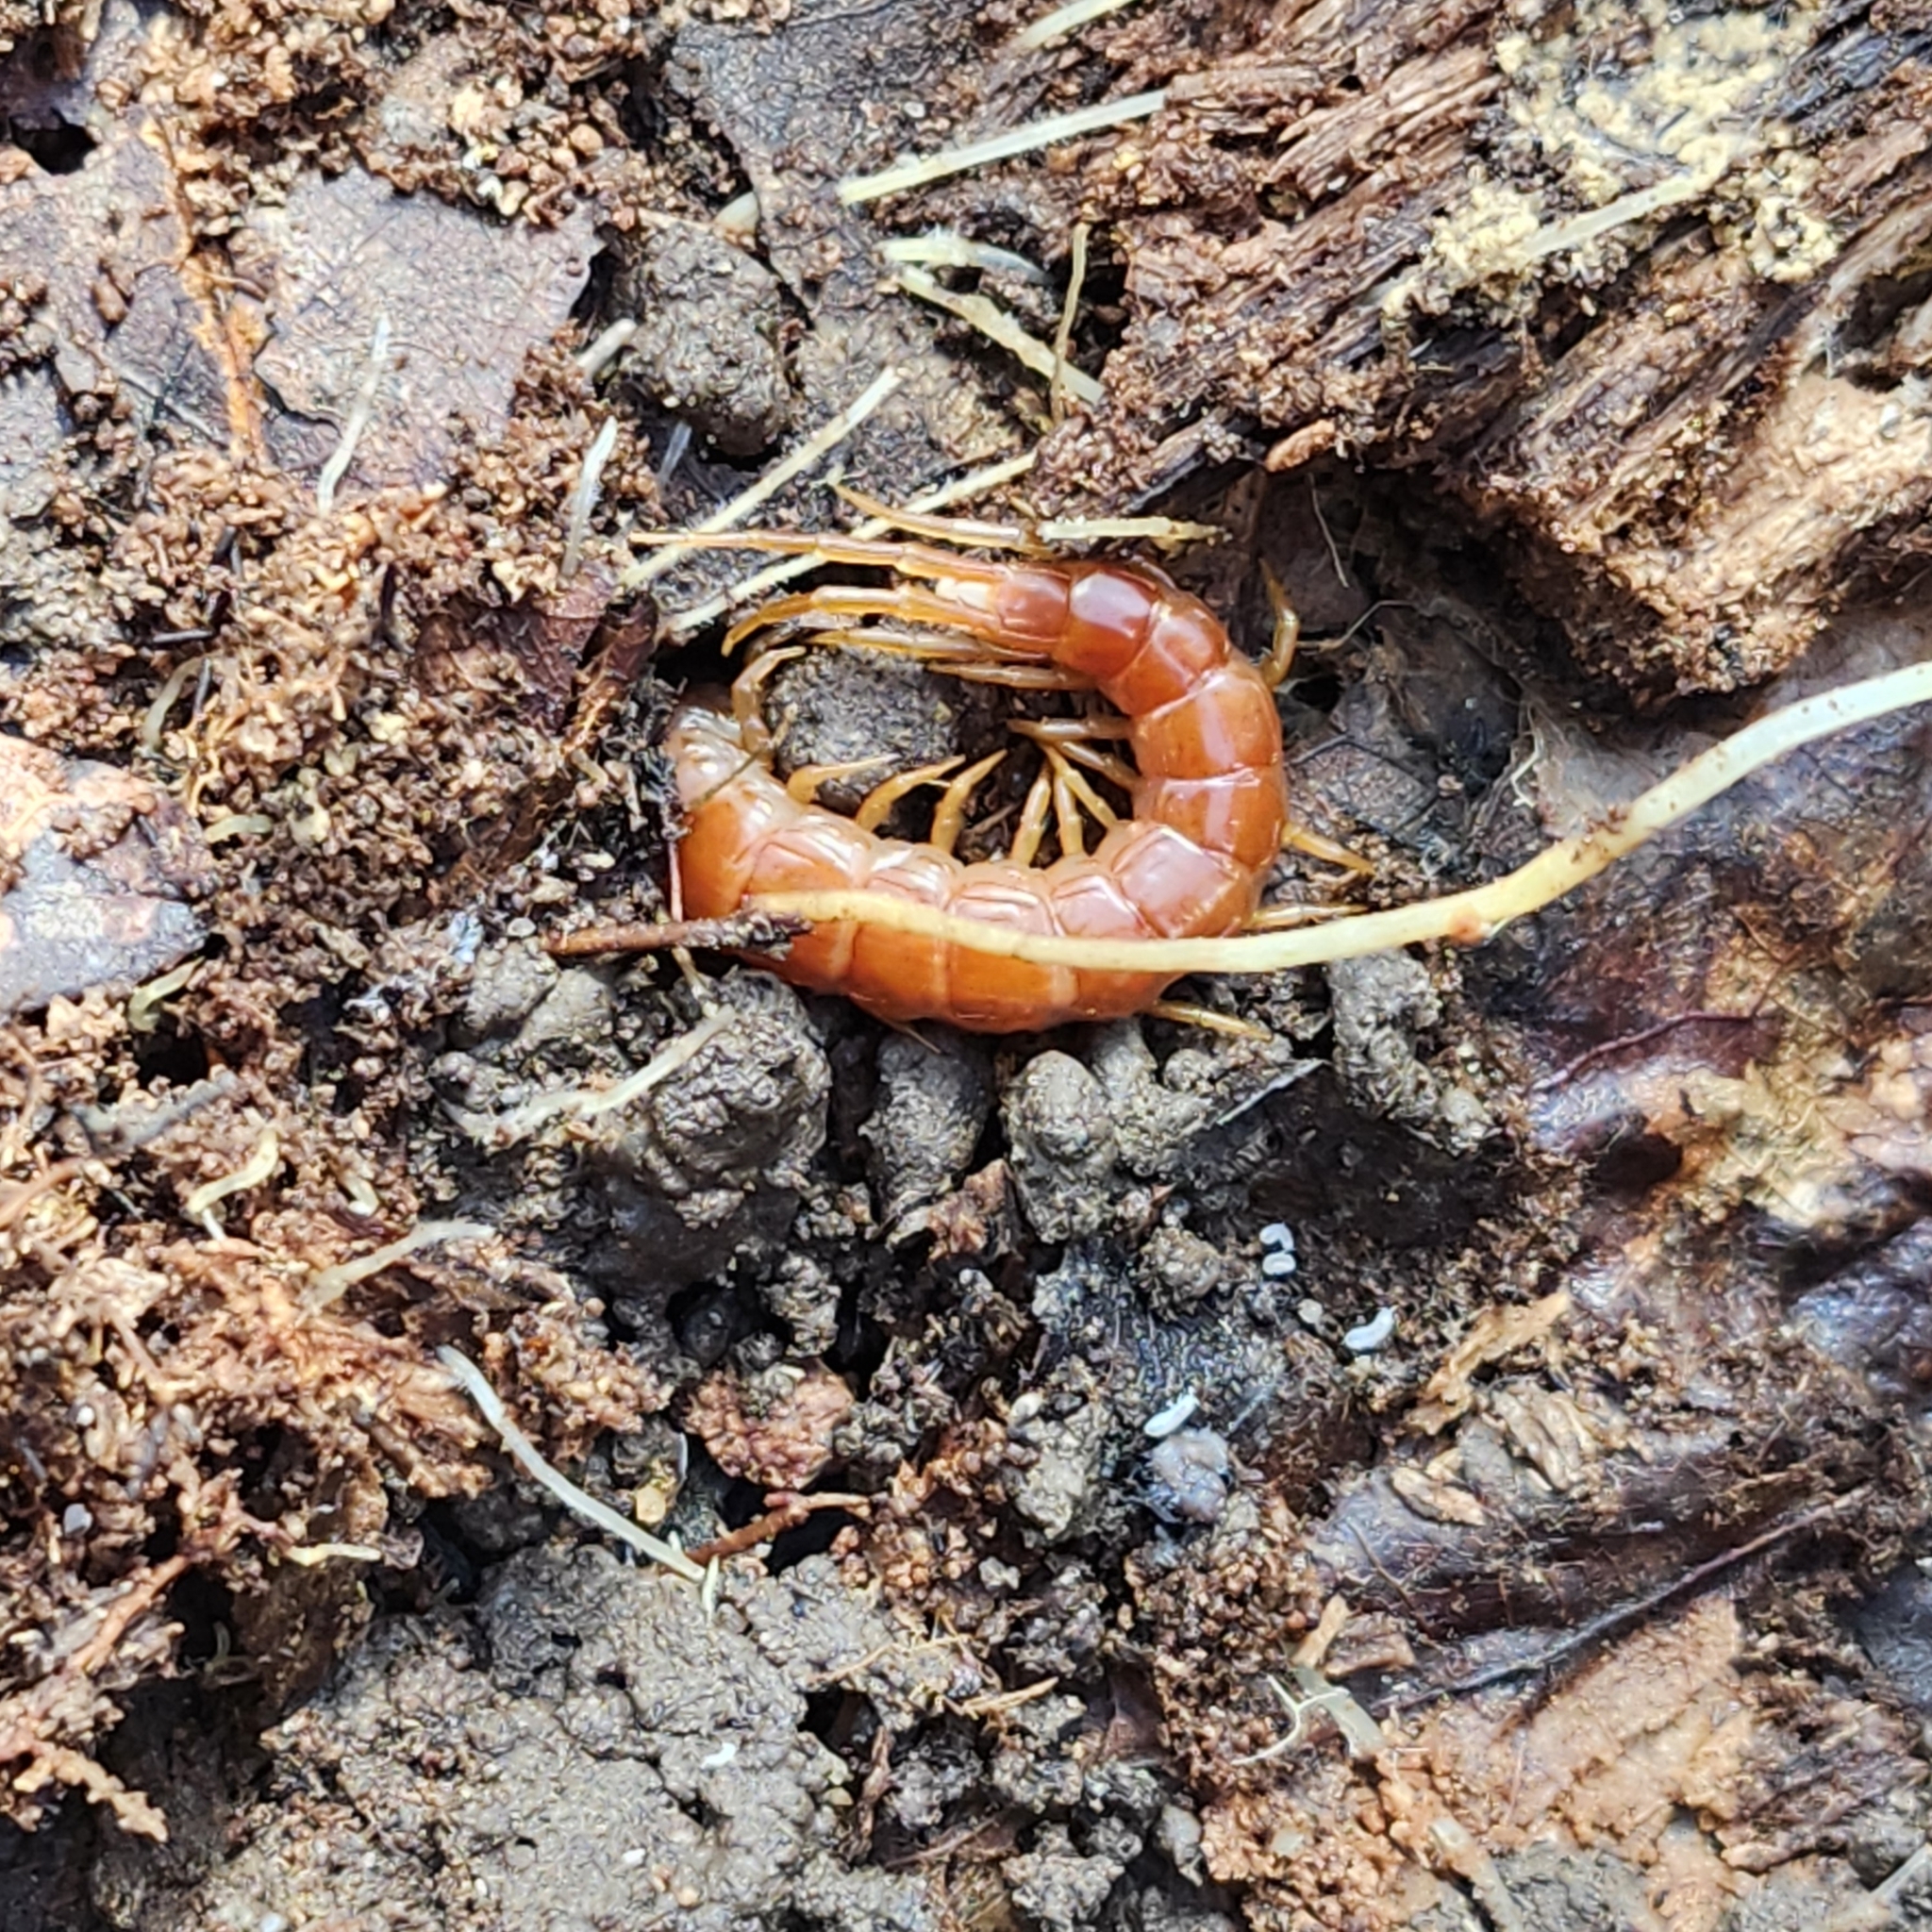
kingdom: Animalia
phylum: Arthropoda
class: Chilopoda
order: Scolopendromorpha
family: Scolopocryptopidae
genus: Scolopocryptops
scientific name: Scolopocryptops sexspinosus
